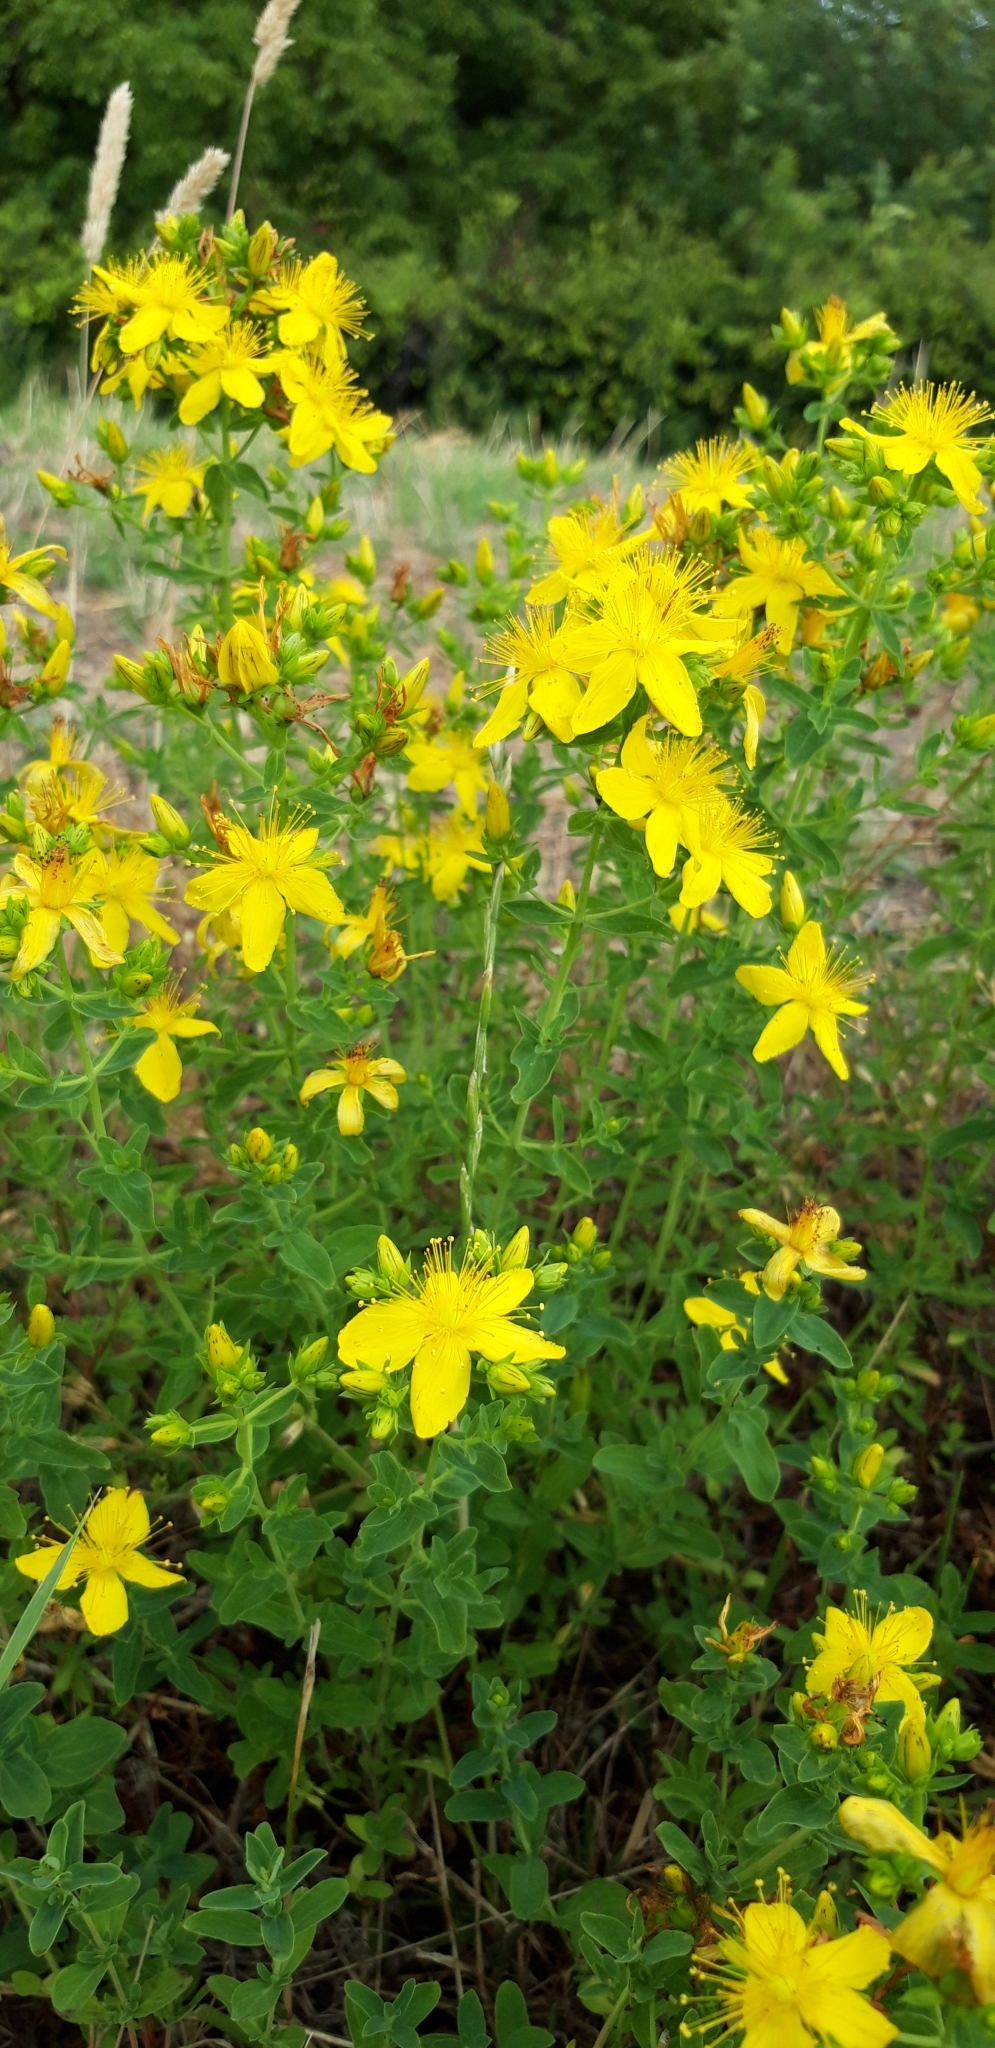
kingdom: Plantae
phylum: Tracheophyta
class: Magnoliopsida
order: Malpighiales
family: Hypericaceae
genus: Hypericum
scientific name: Hypericum perforatum
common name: Common st. johnswort
